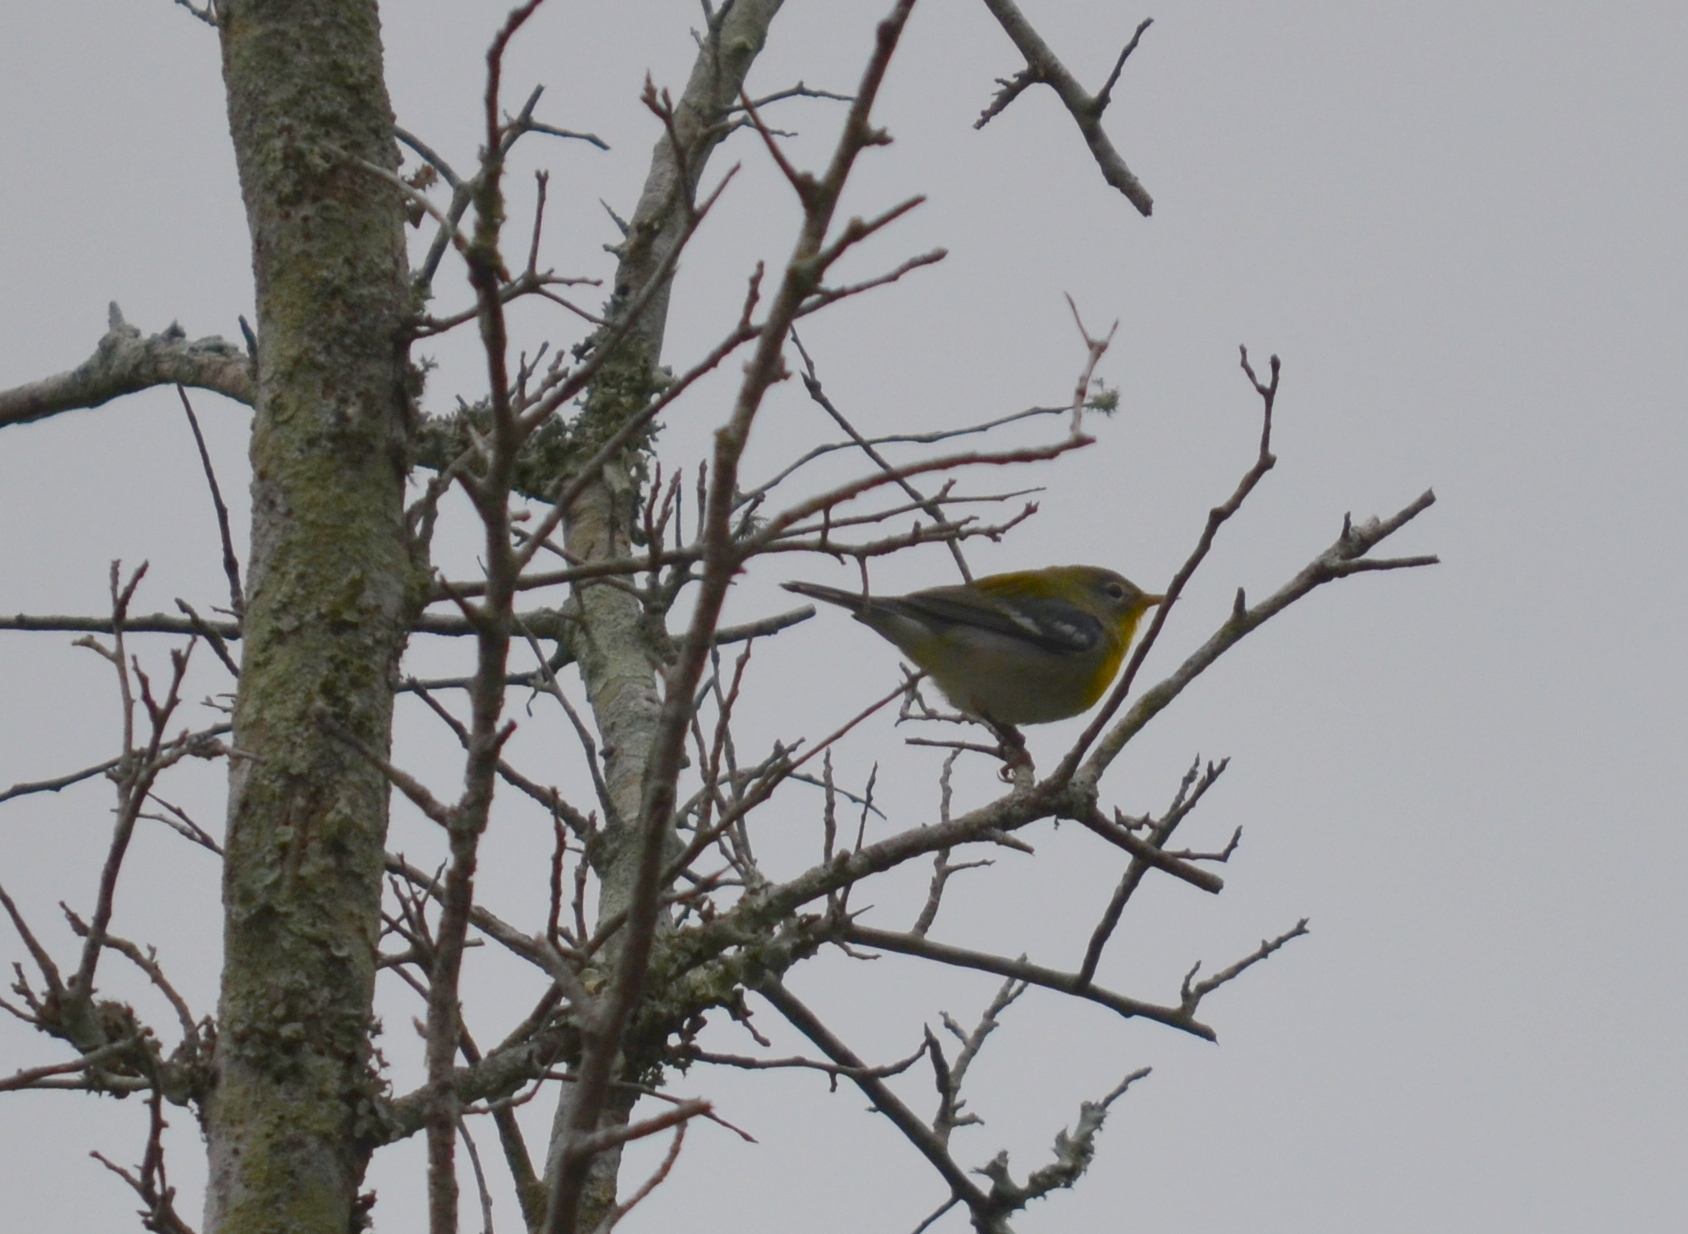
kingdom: Animalia
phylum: Chordata
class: Aves
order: Passeriformes
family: Parulidae
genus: Setophaga
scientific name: Setophaga americana
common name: Northern parula
